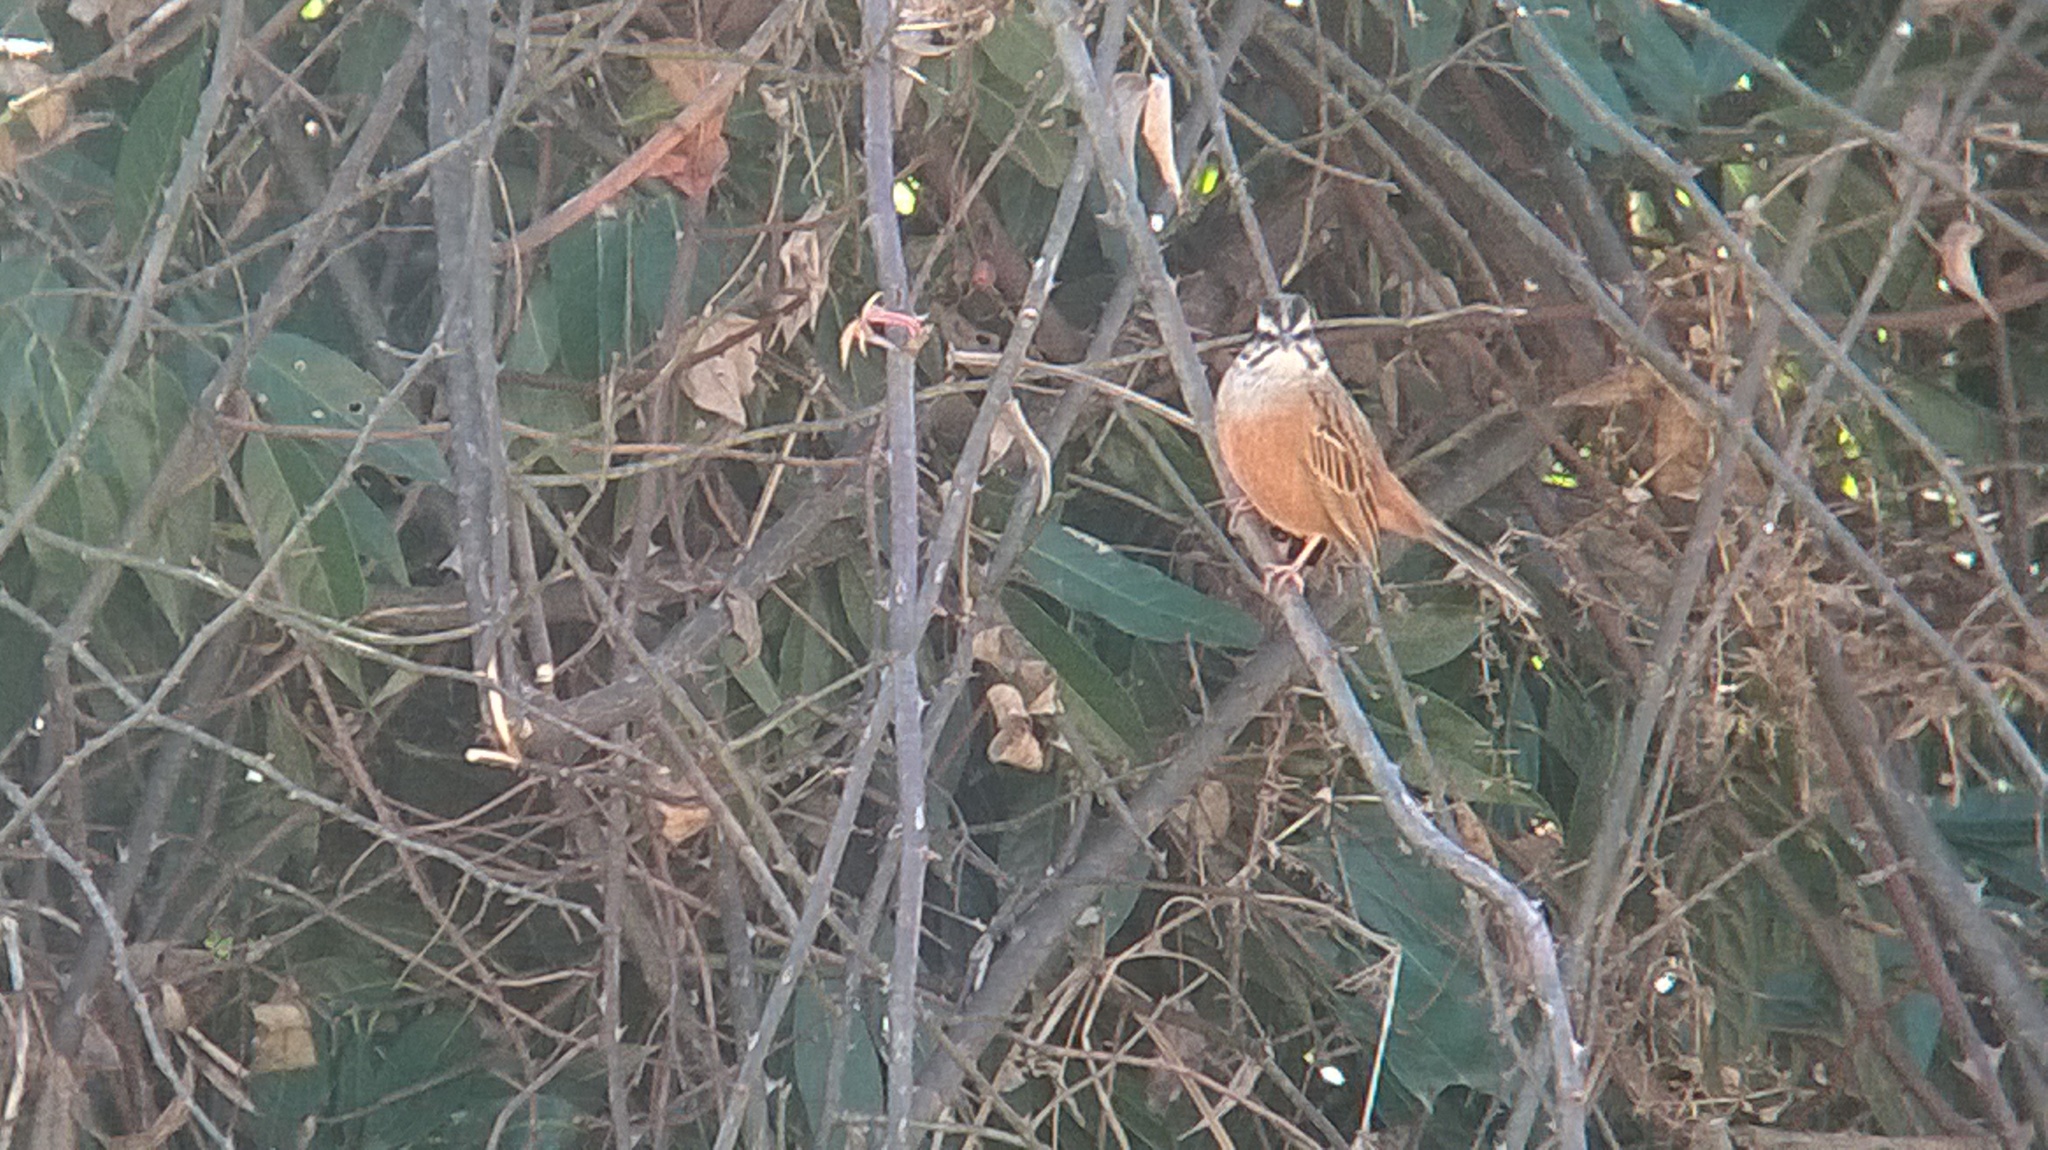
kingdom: Animalia
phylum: Chordata
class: Aves
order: Passeriformes
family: Emberizidae
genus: Emberiza
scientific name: Emberiza cia
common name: Rock bunting
